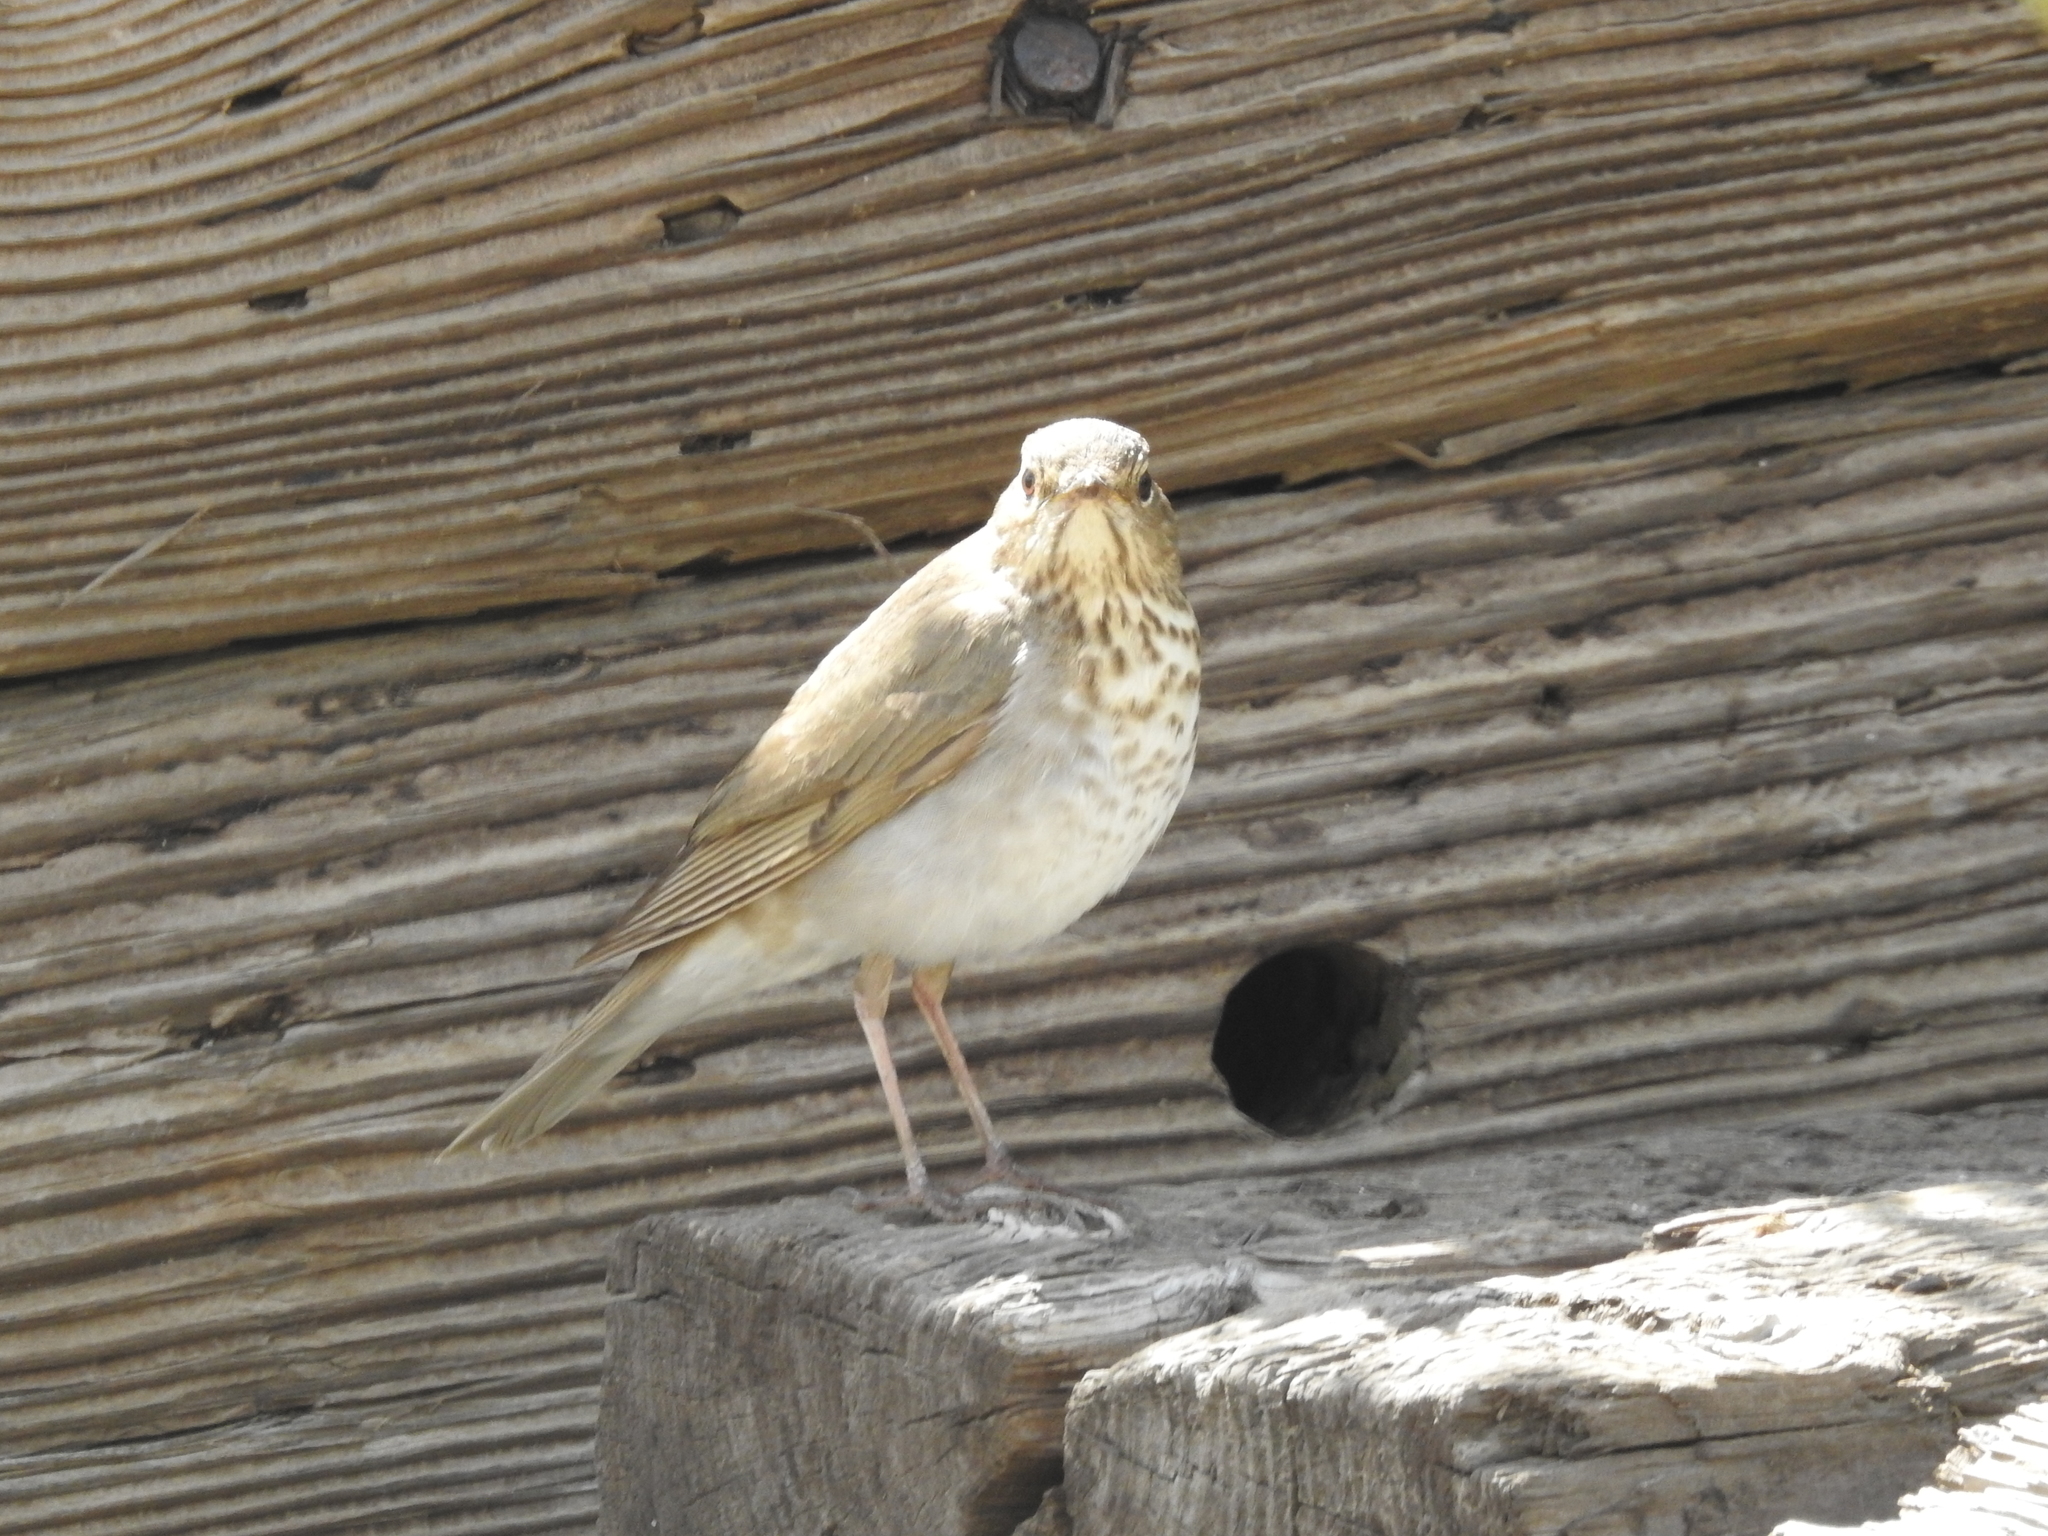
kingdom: Animalia
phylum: Chordata
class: Aves
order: Passeriformes
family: Turdidae
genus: Catharus
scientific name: Catharus ustulatus
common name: Swainson's thrush
